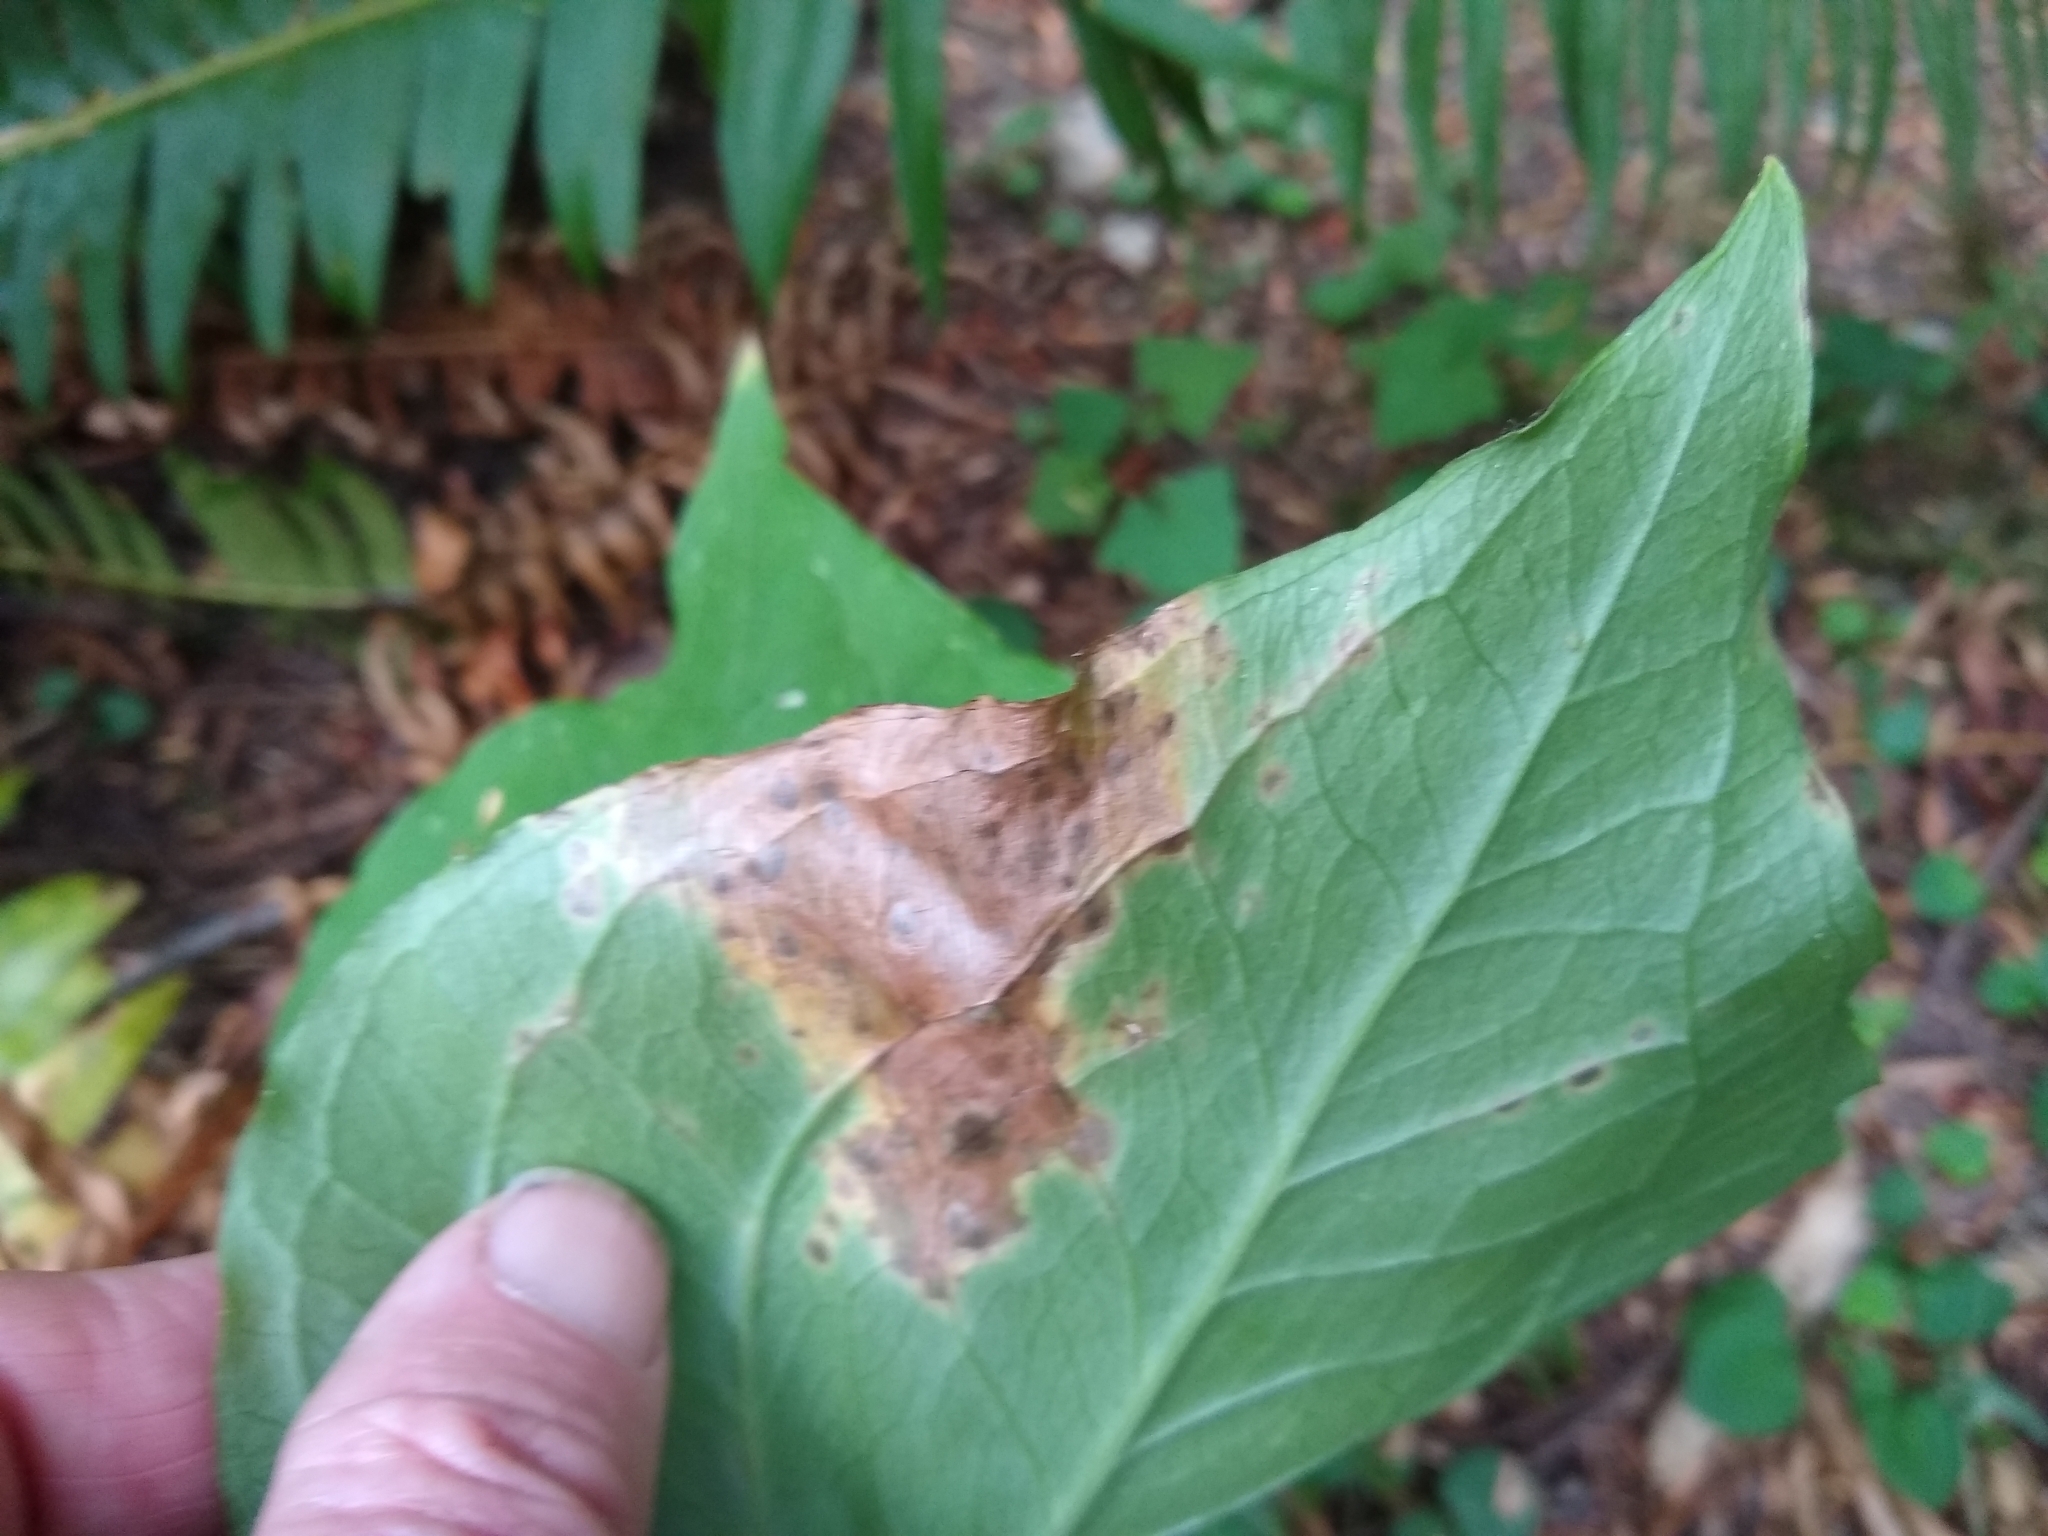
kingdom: Plantae
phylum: Tracheophyta
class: Liliopsida
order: Liliales
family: Melanthiaceae
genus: Trillium
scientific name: Trillium ovatum
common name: Pacific trillium
